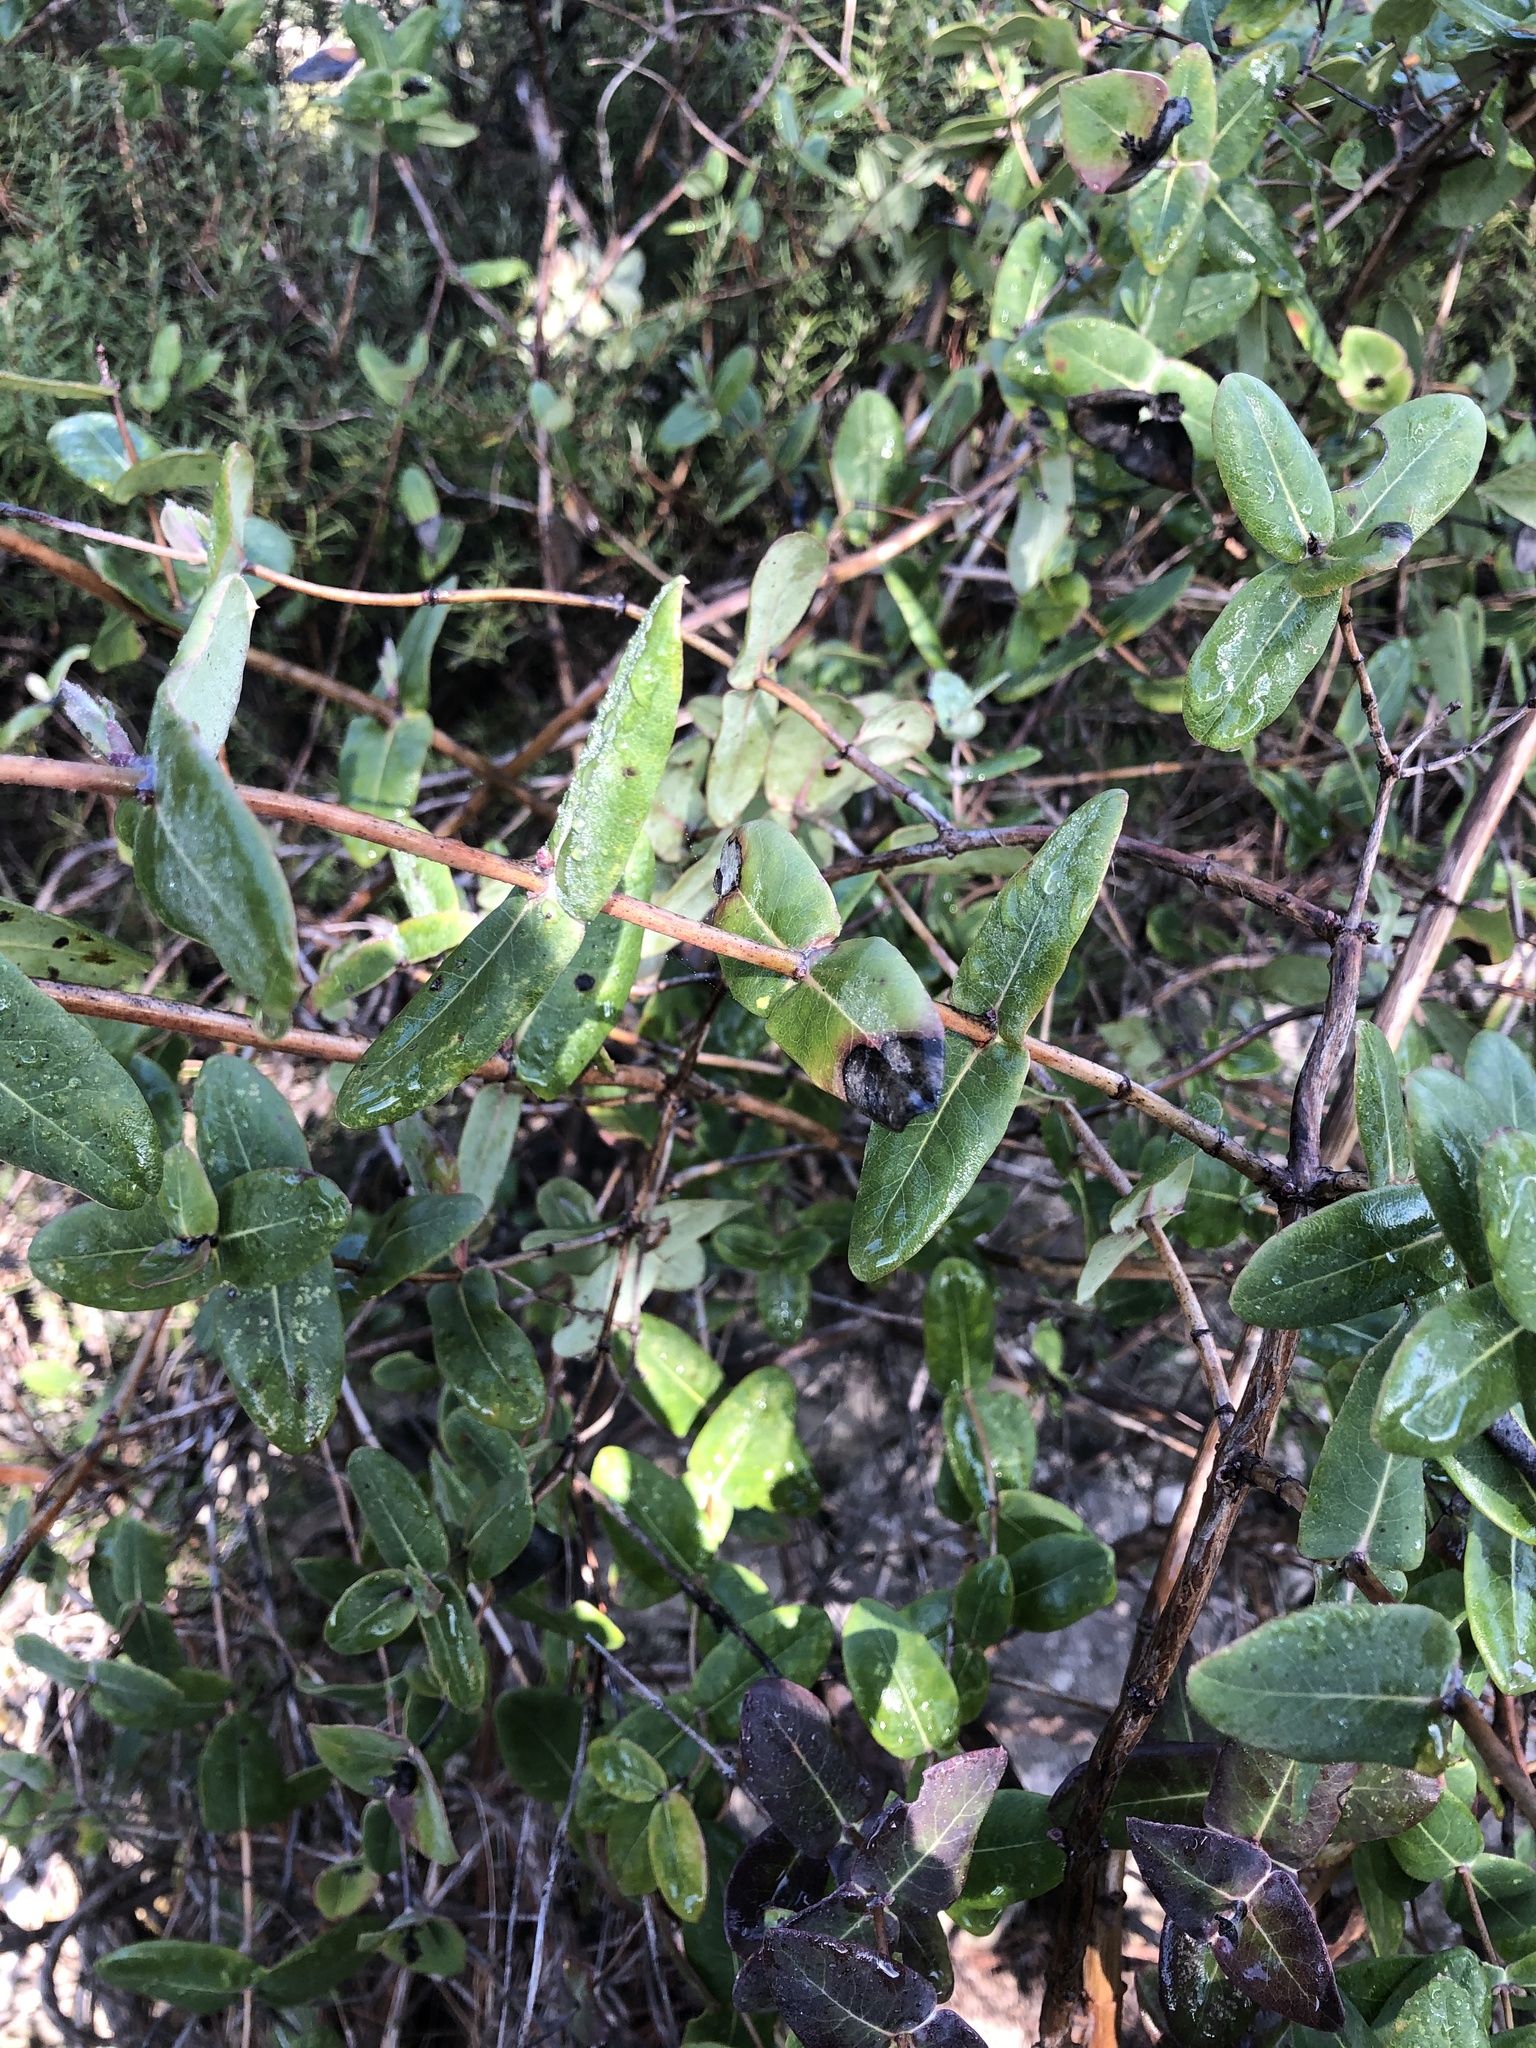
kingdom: Plantae
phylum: Tracheophyta
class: Magnoliopsida
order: Dipsacales
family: Caprifoliaceae
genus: Lonicera
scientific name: Lonicera implexa
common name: Minorca honeysuckle
